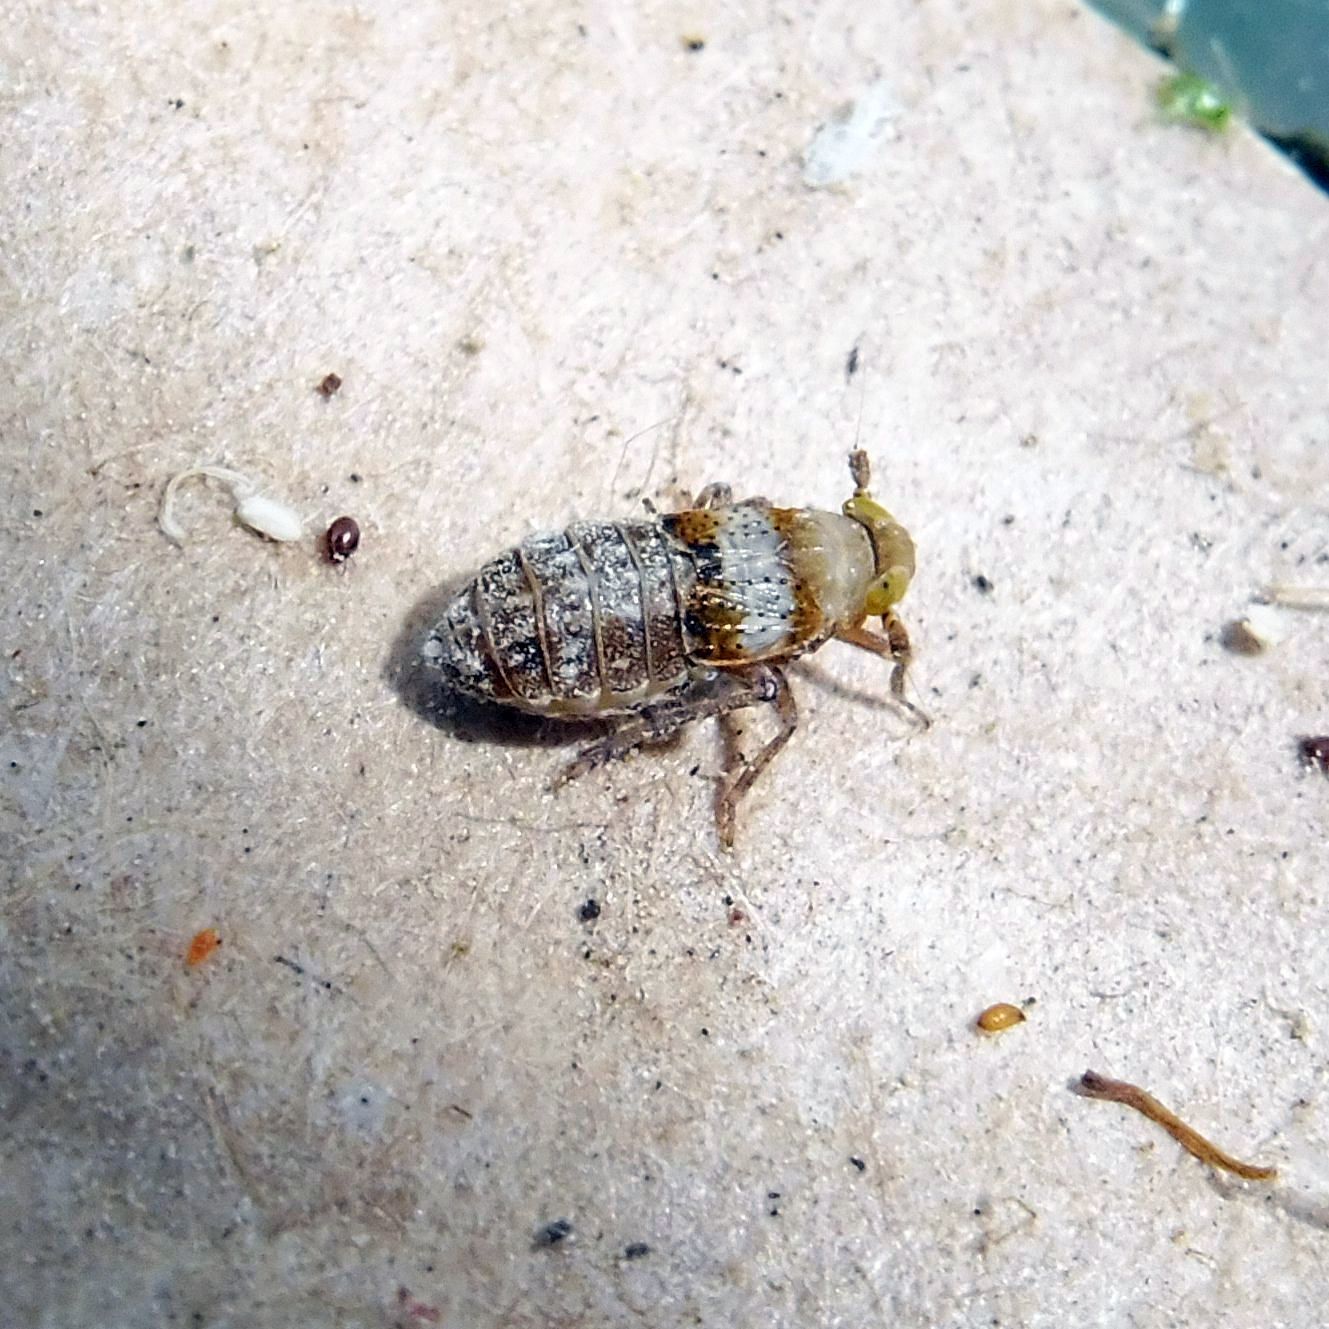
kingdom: Animalia
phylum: Arthropoda
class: Insecta
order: Hemiptera
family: Delphacidae
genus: Conomelus
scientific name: Conomelus anceps
